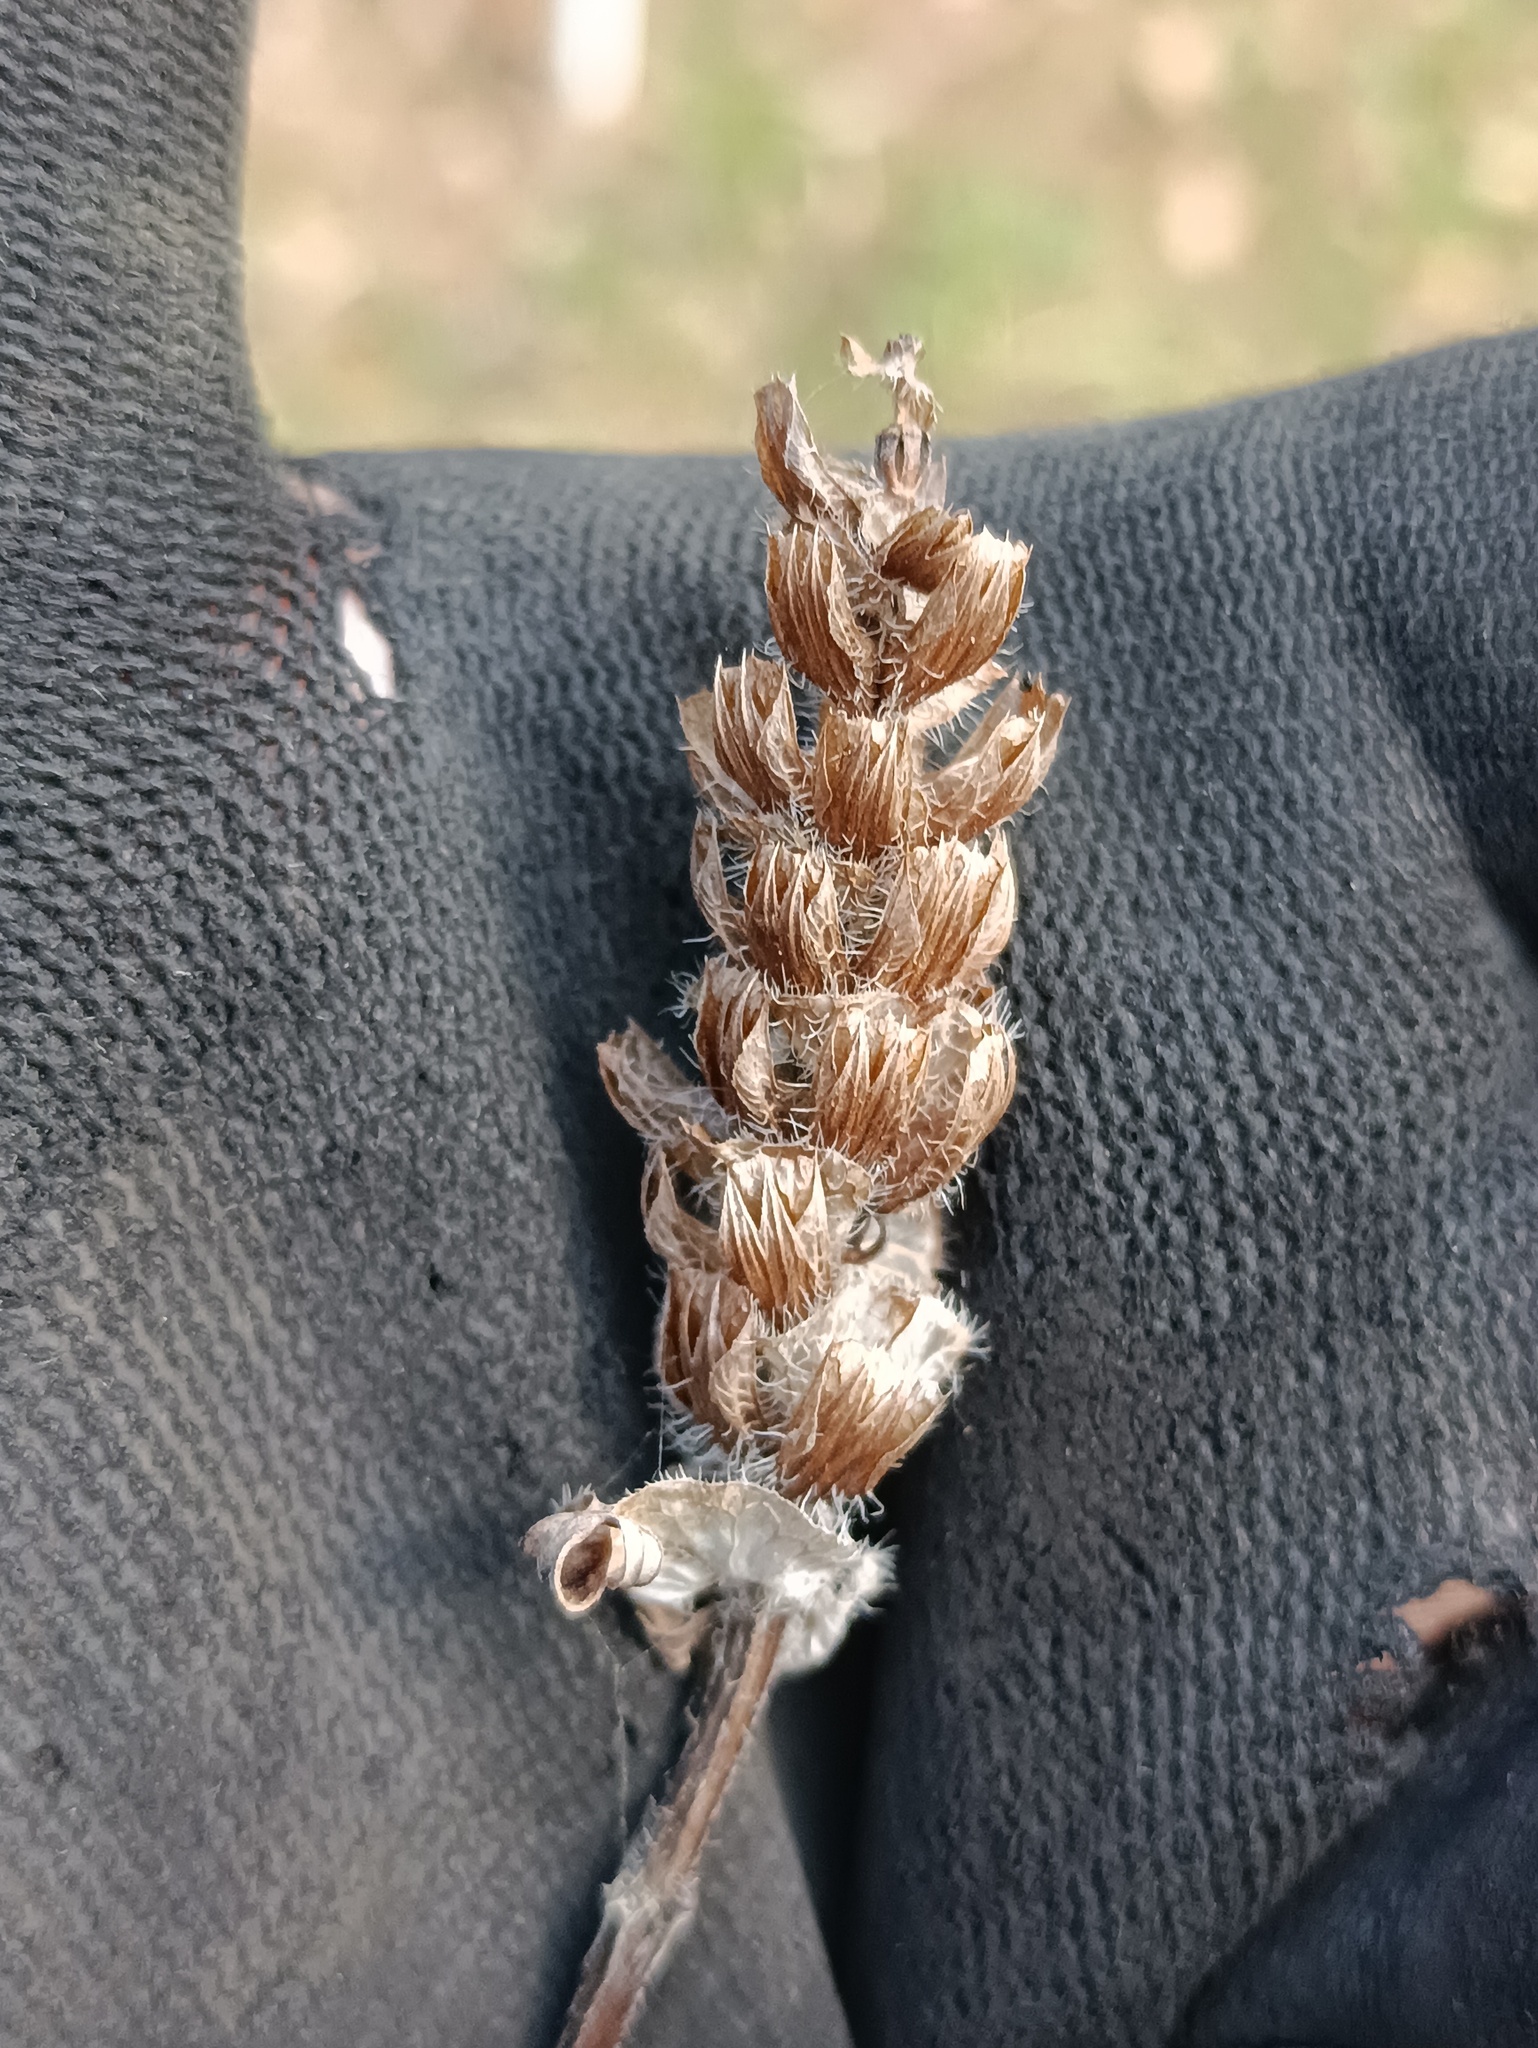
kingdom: Plantae
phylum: Tracheophyta
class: Magnoliopsida
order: Lamiales
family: Lamiaceae
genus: Prunella
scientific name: Prunella vulgaris
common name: Heal-all
